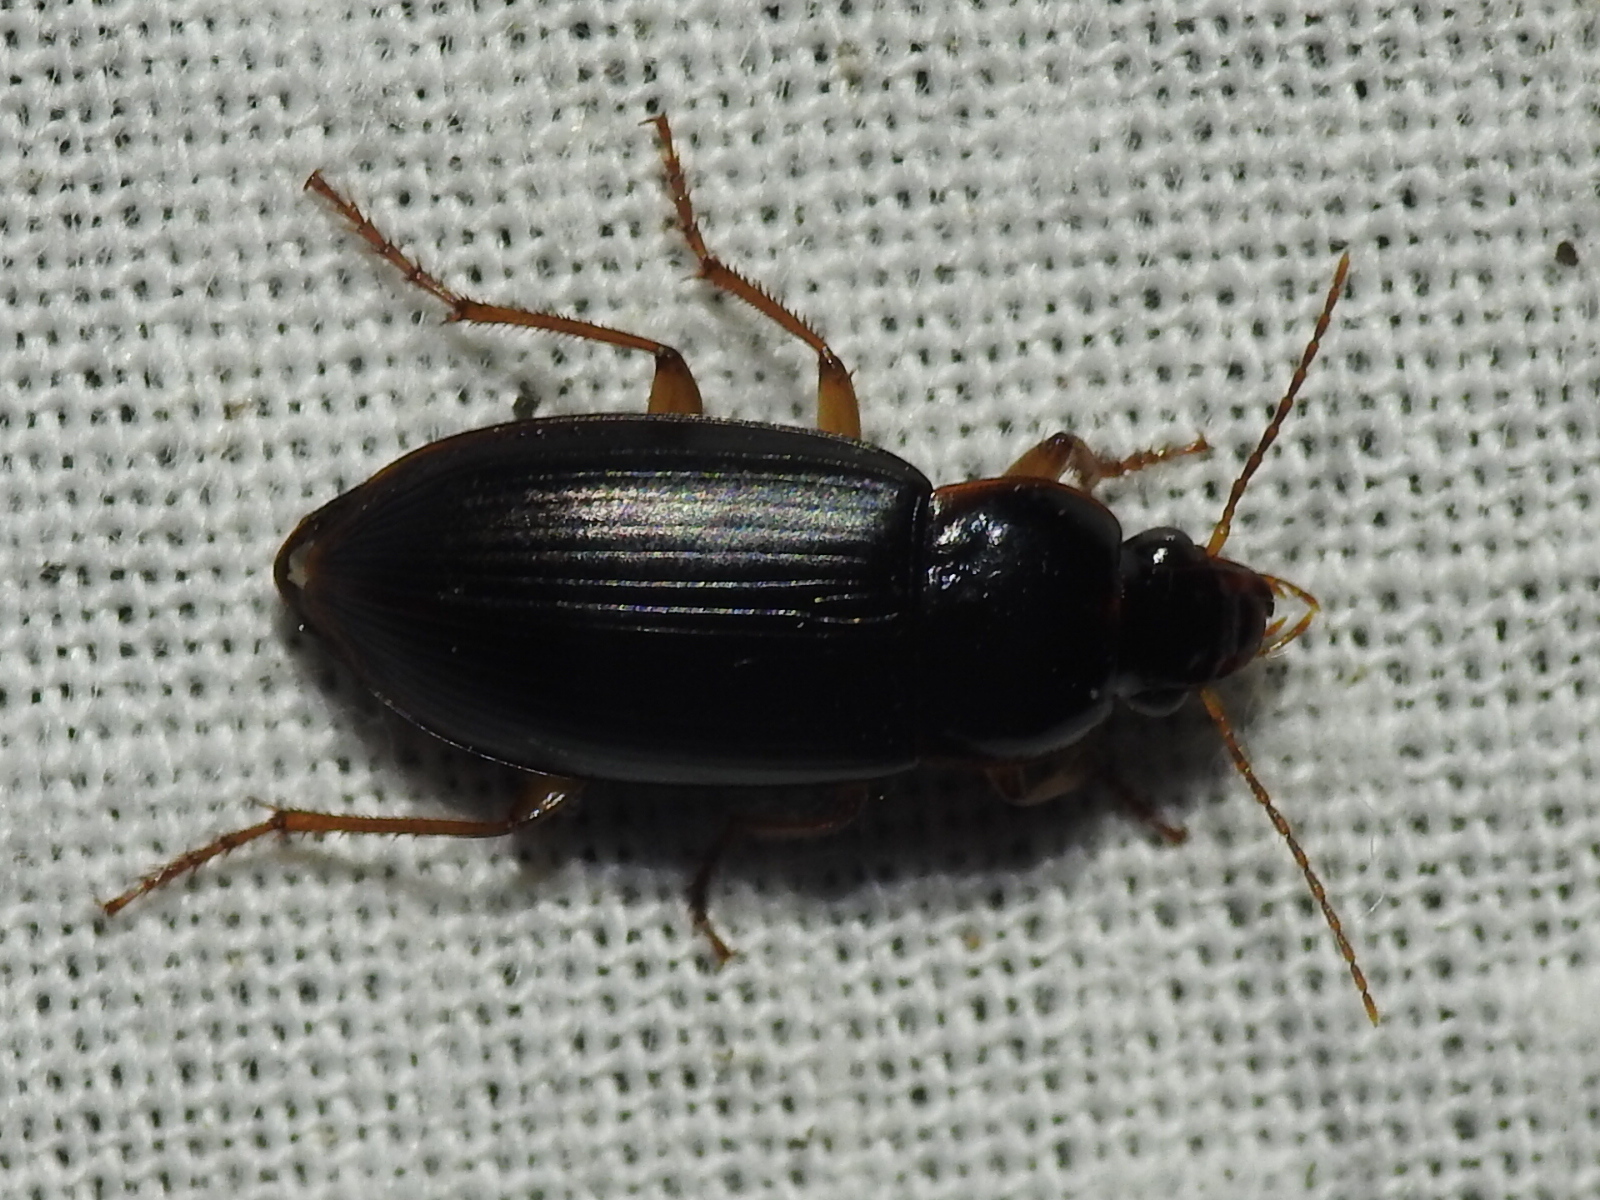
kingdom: Animalia
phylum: Arthropoda
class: Insecta
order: Coleoptera
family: Carabidae
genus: Notiobia
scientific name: Notiobia terminata
